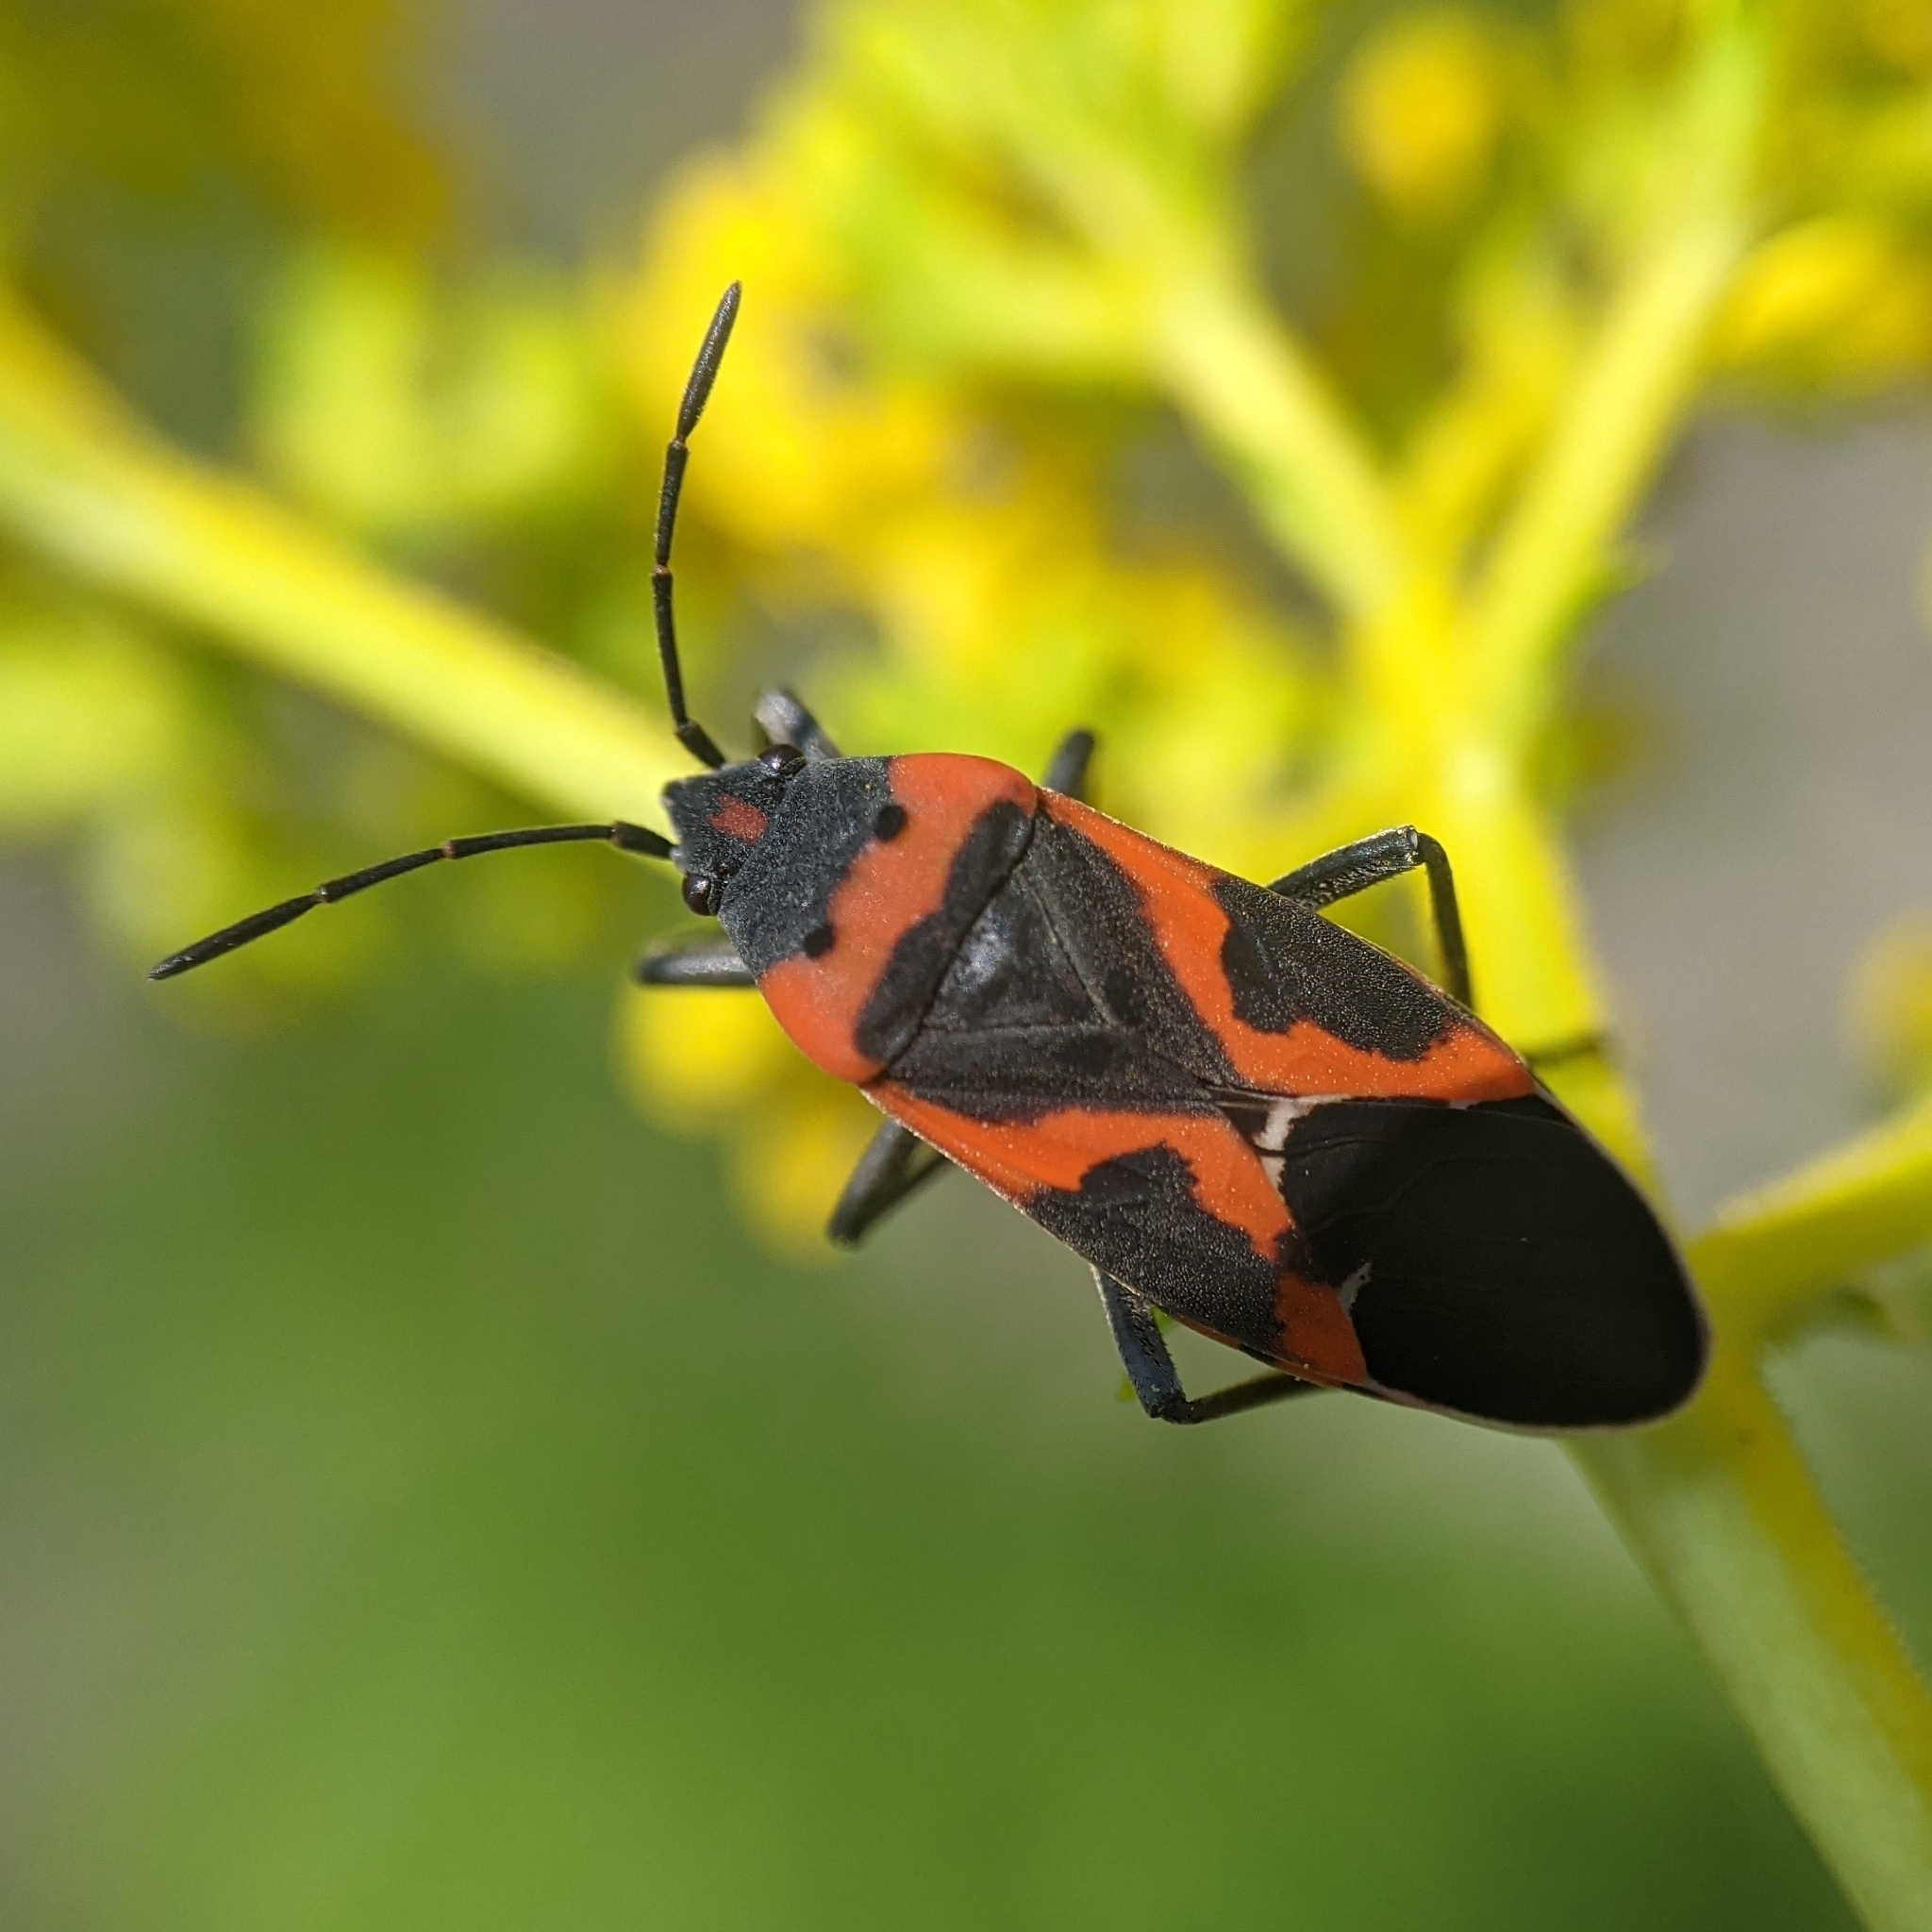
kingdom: Animalia
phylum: Arthropoda
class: Insecta
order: Hemiptera
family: Lygaeidae
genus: Lygaeus
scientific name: Lygaeus kalmii
